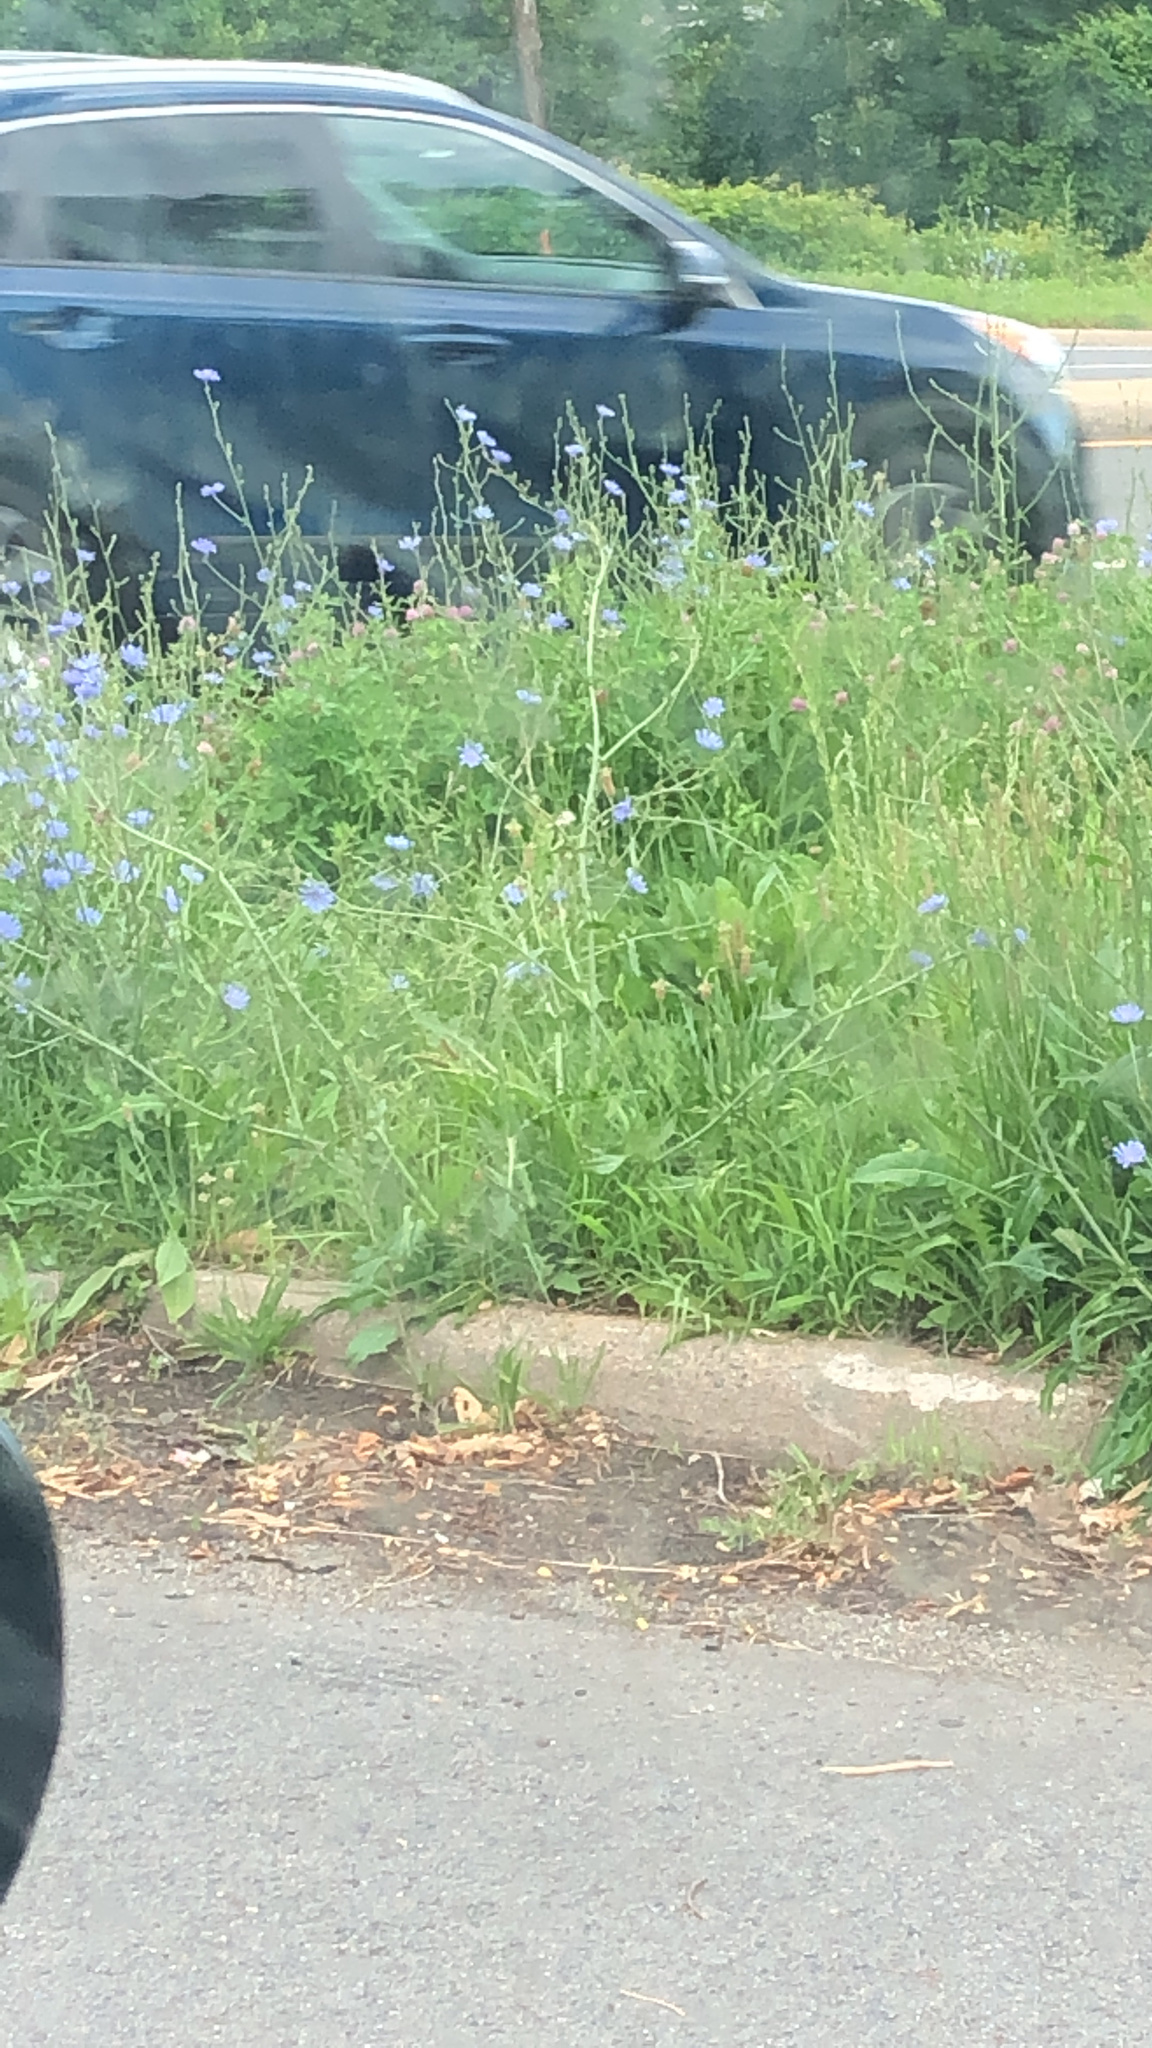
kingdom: Plantae
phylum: Tracheophyta
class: Magnoliopsida
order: Asterales
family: Asteraceae
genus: Cichorium
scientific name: Cichorium intybus
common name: Chicory
